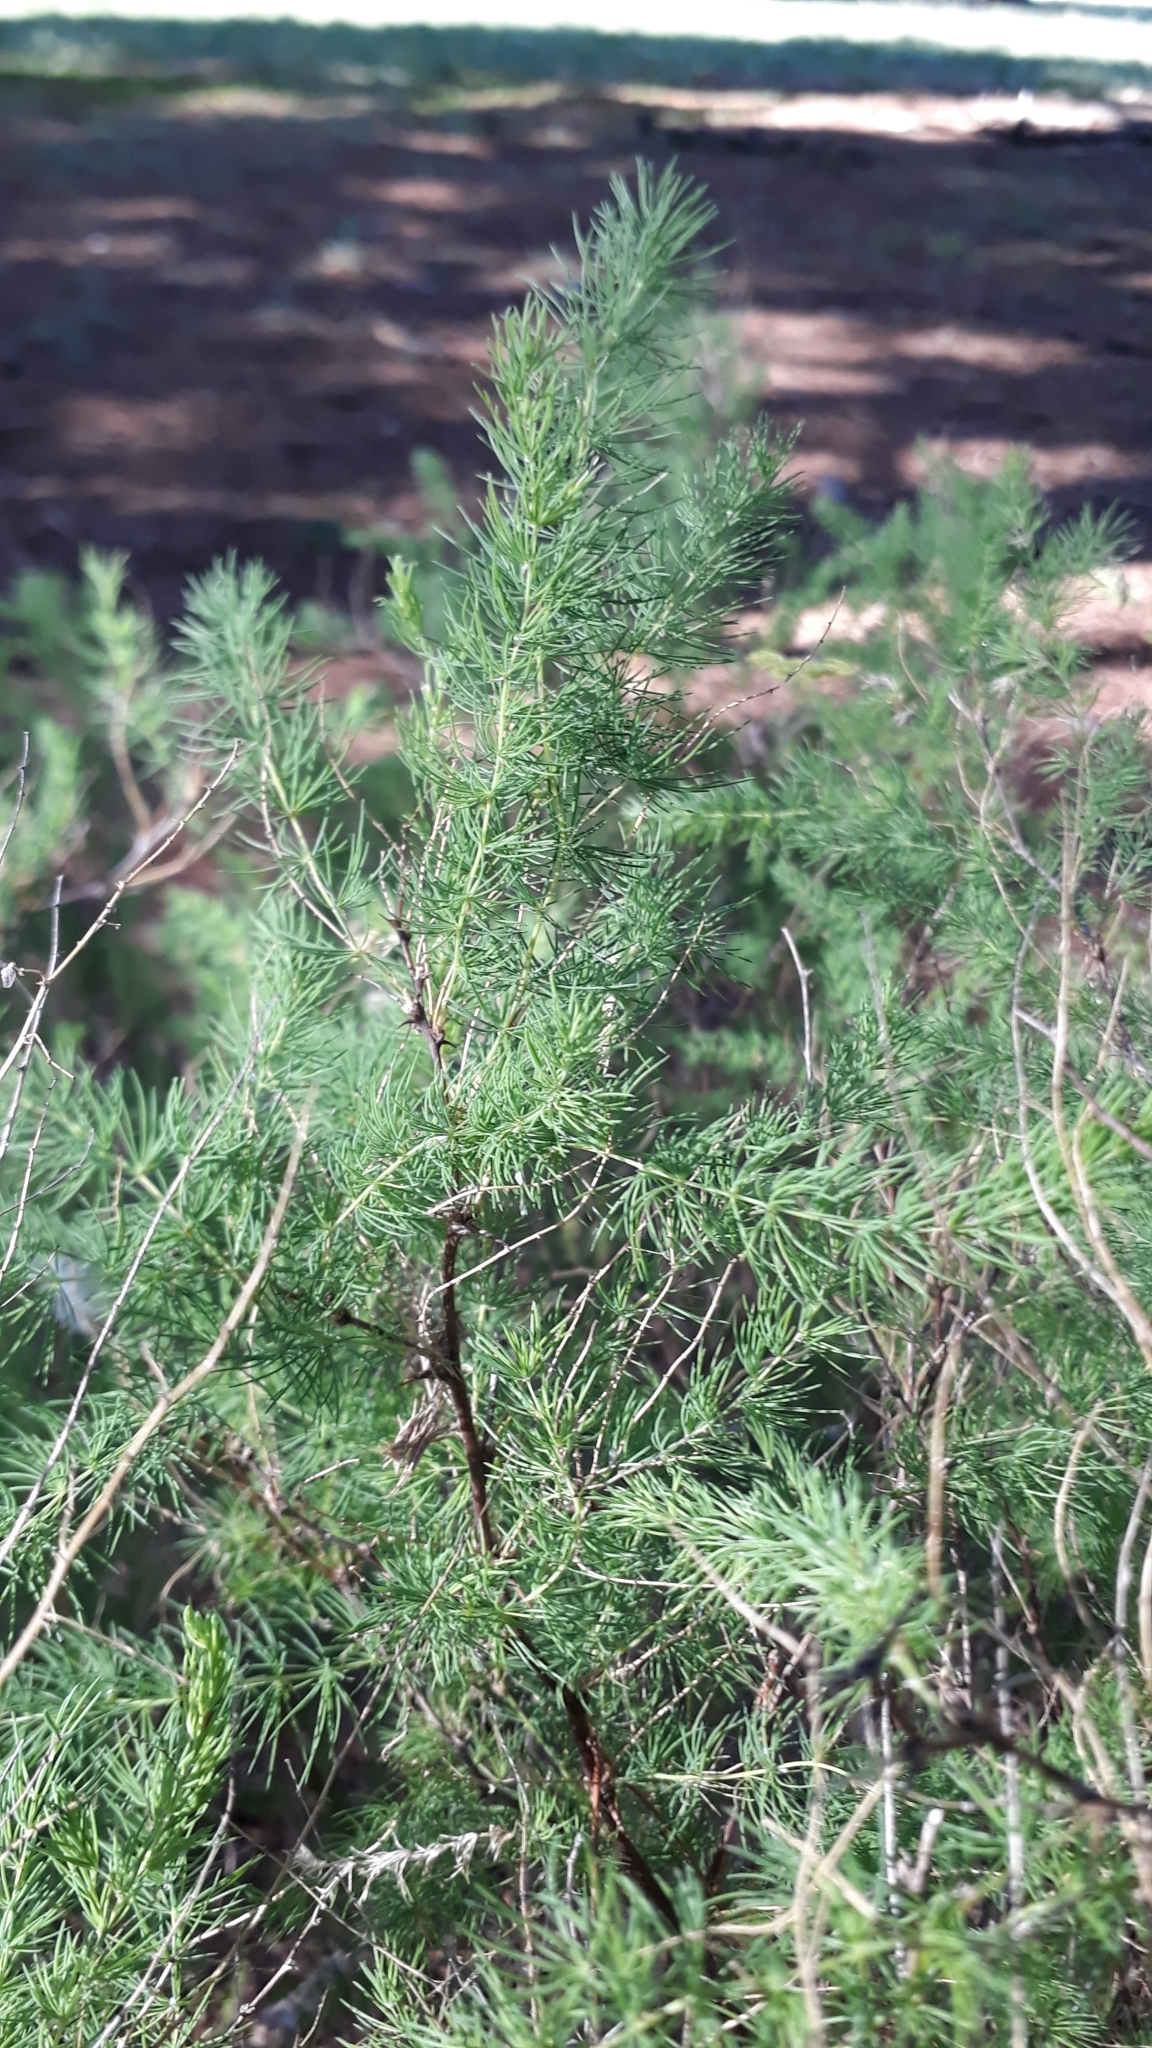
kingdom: Plantae
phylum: Tracheophyta
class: Liliopsida
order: Asparagales
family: Asparagaceae
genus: Asparagus
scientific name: Asparagus rubicundus
